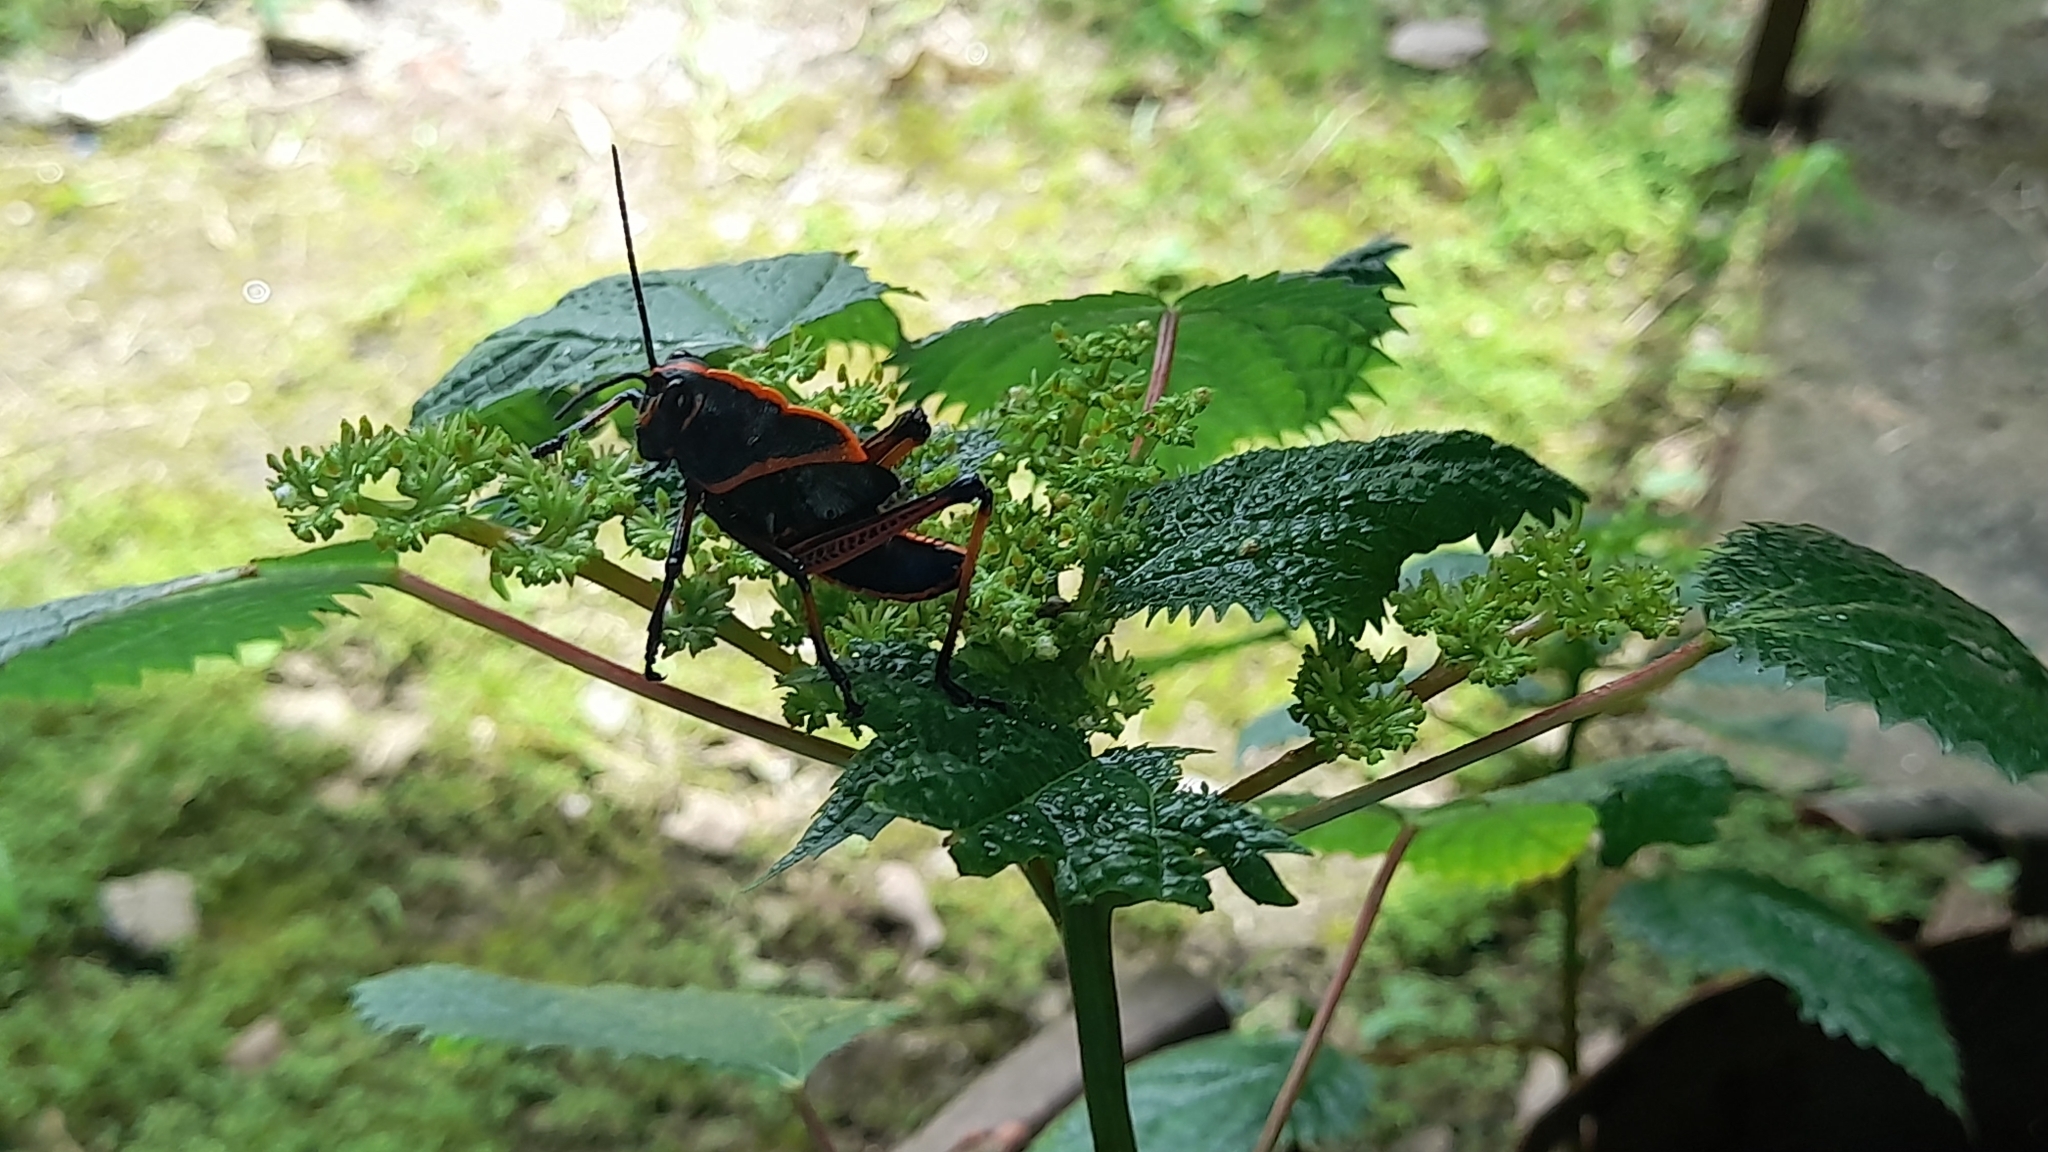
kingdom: Animalia
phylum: Arthropoda
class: Insecta
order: Orthoptera
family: Romaleidae
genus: Romalea
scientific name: Romalea
